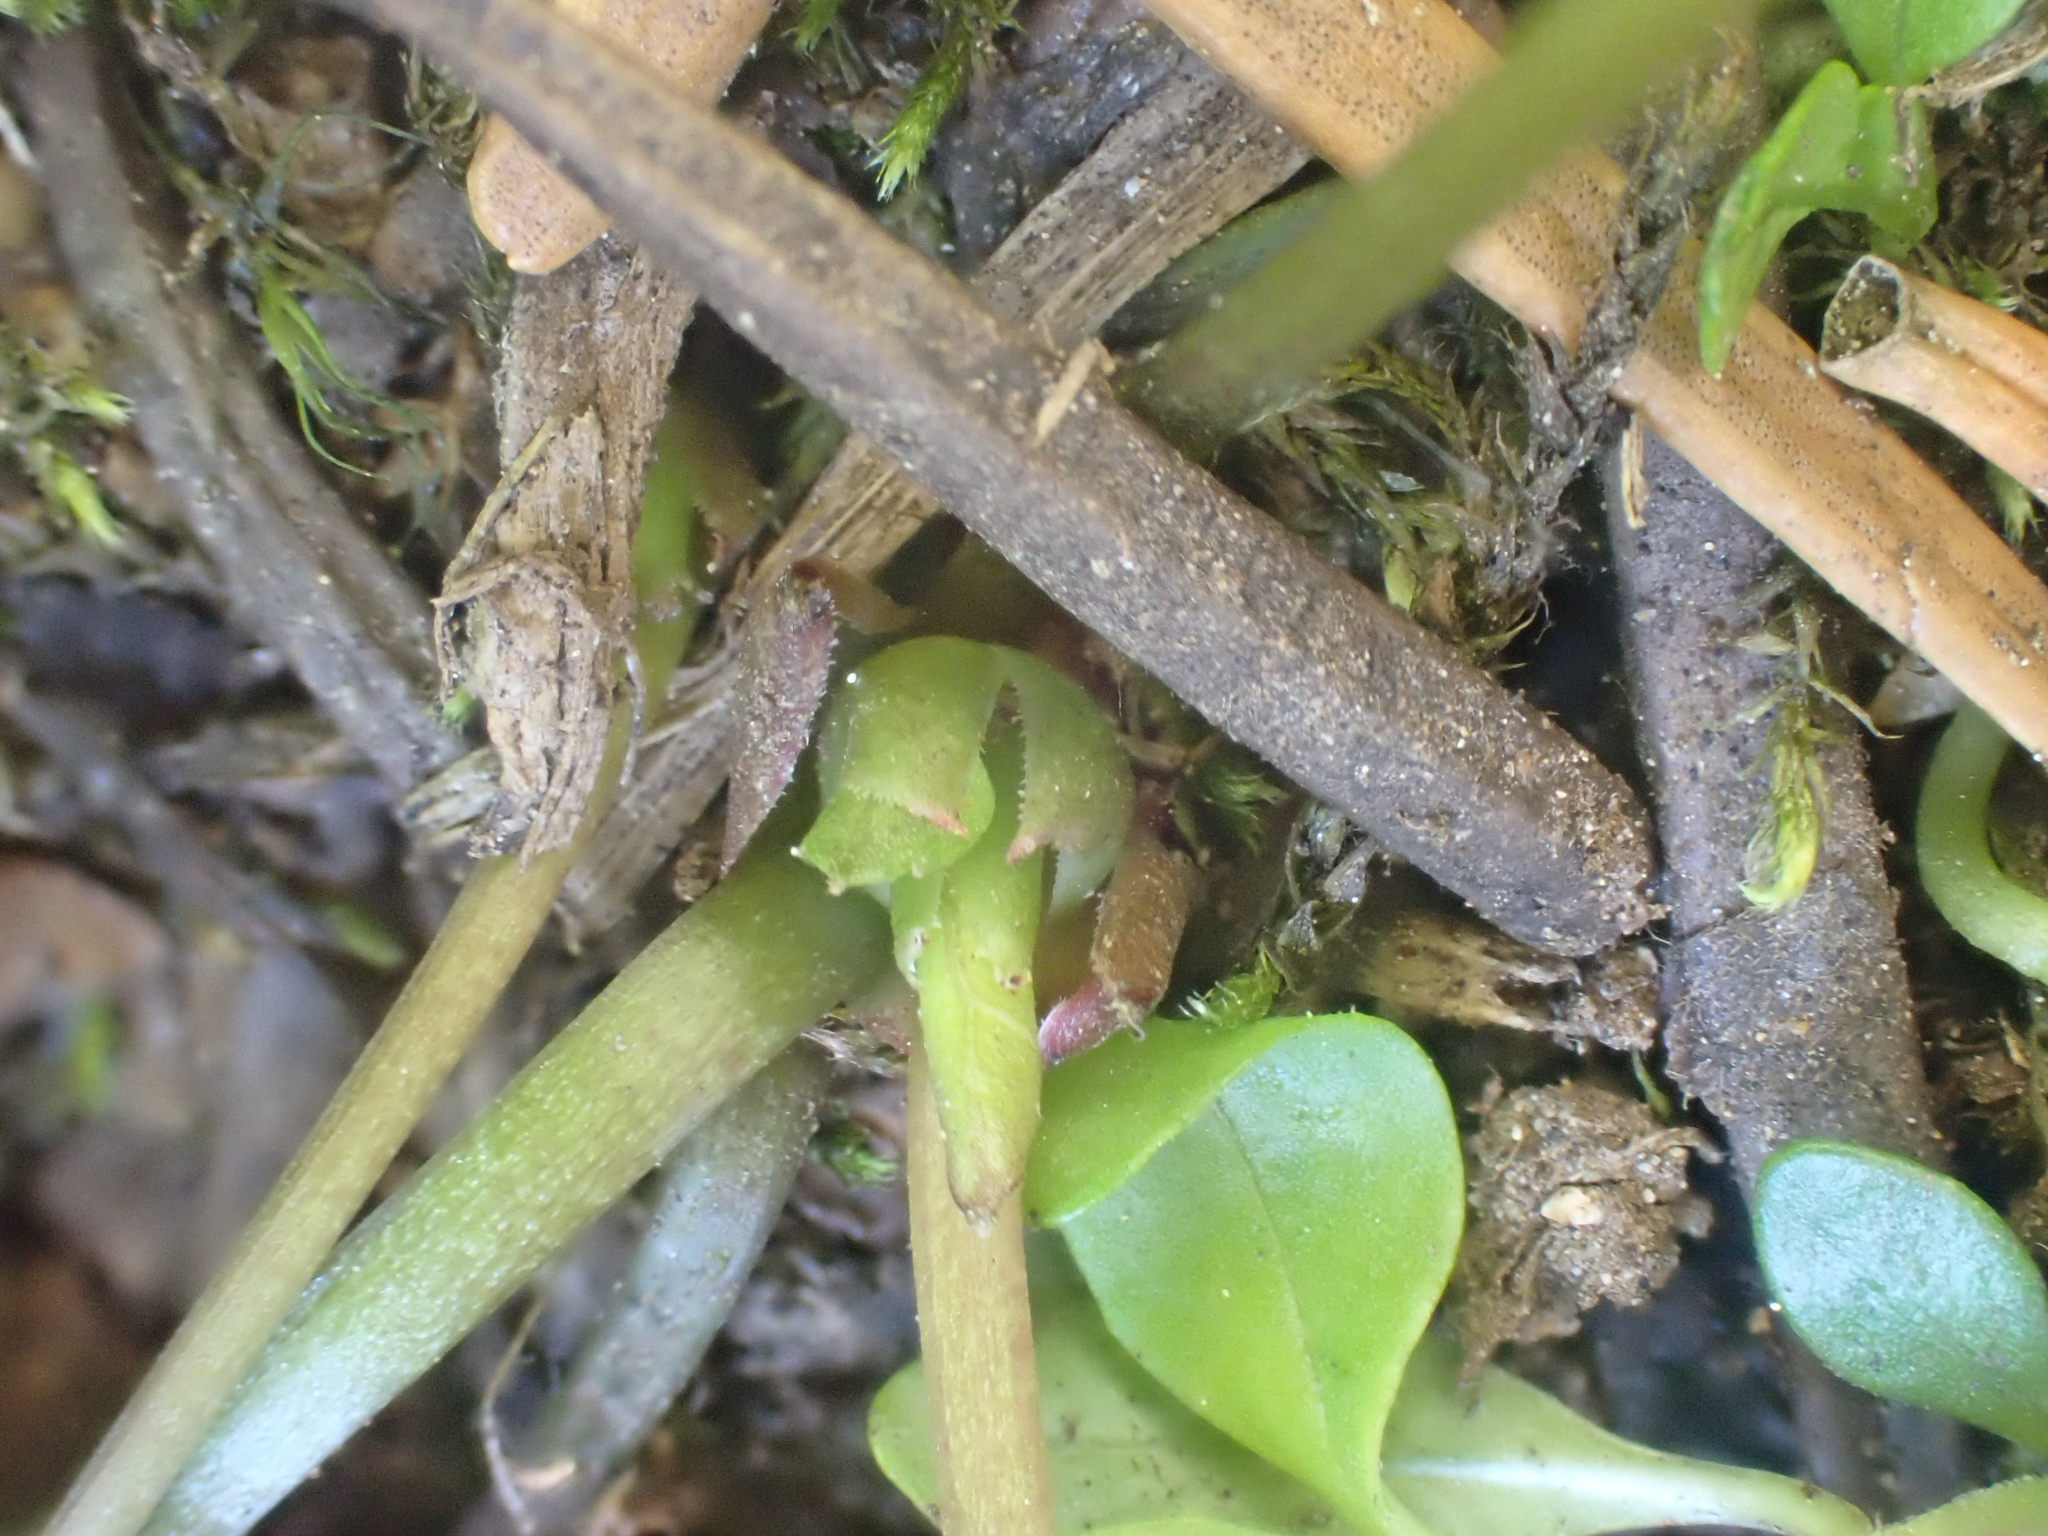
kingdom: Plantae
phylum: Tracheophyta
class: Magnoliopsida
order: Malpighiales
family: Violaceae
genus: Viola
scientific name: Viola orbiculata
